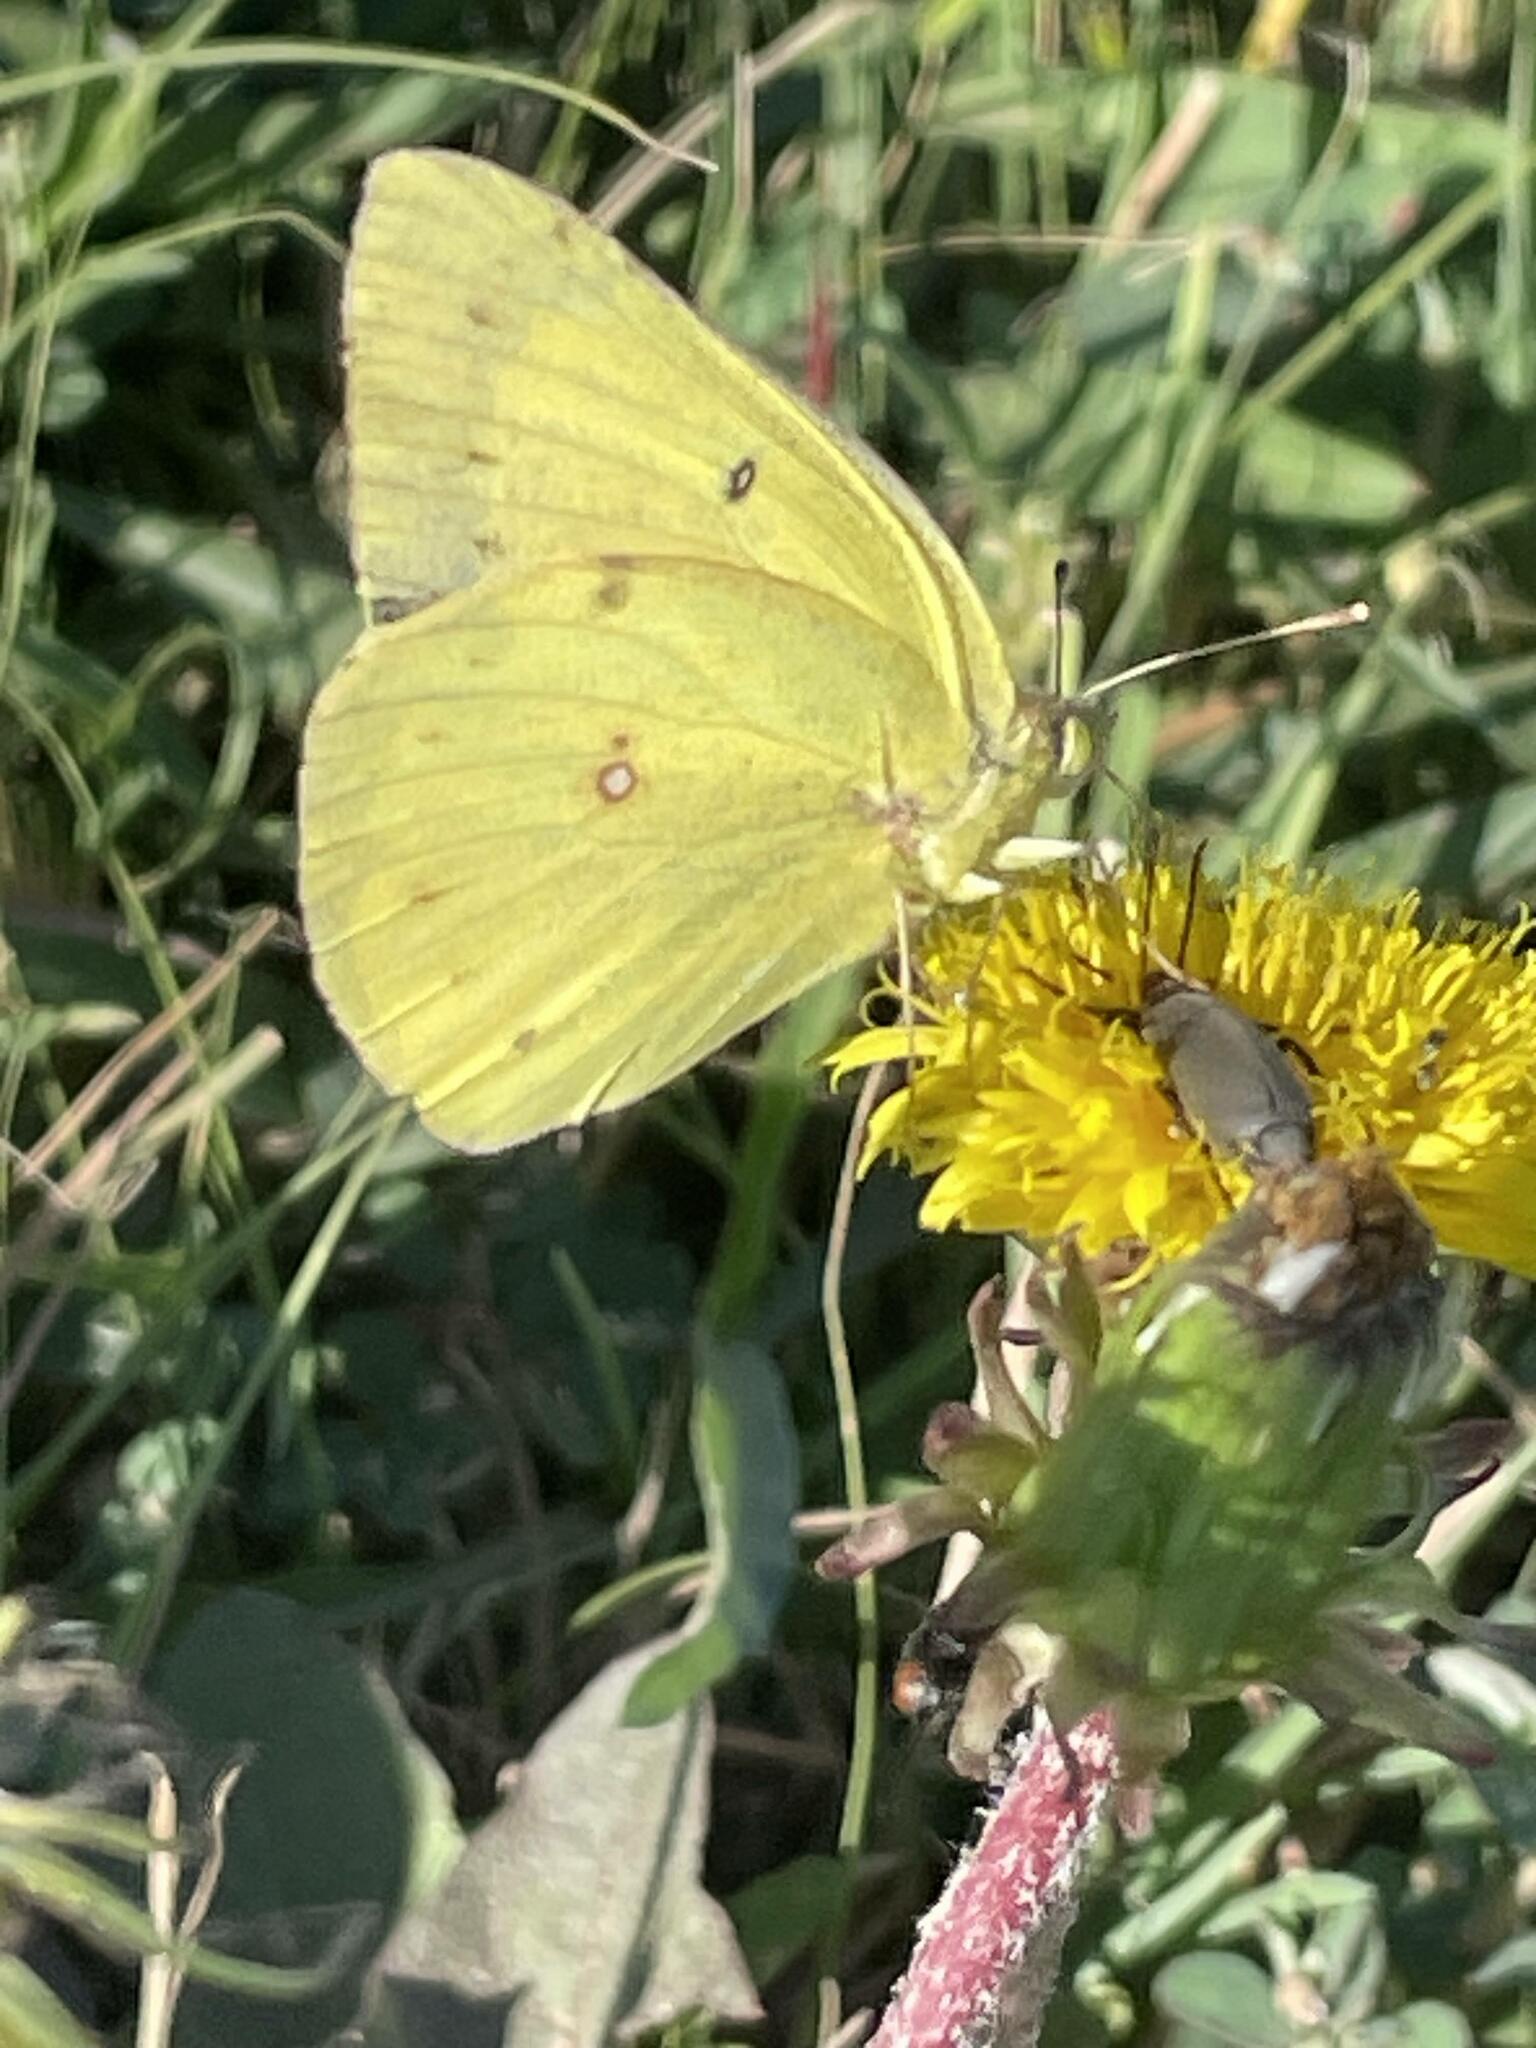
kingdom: Animalia
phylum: Arthropoda
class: Insecta
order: Lepidoptera
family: Pieridae
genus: Colias
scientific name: Colias eurytheme
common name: Alfalfa butterfly
